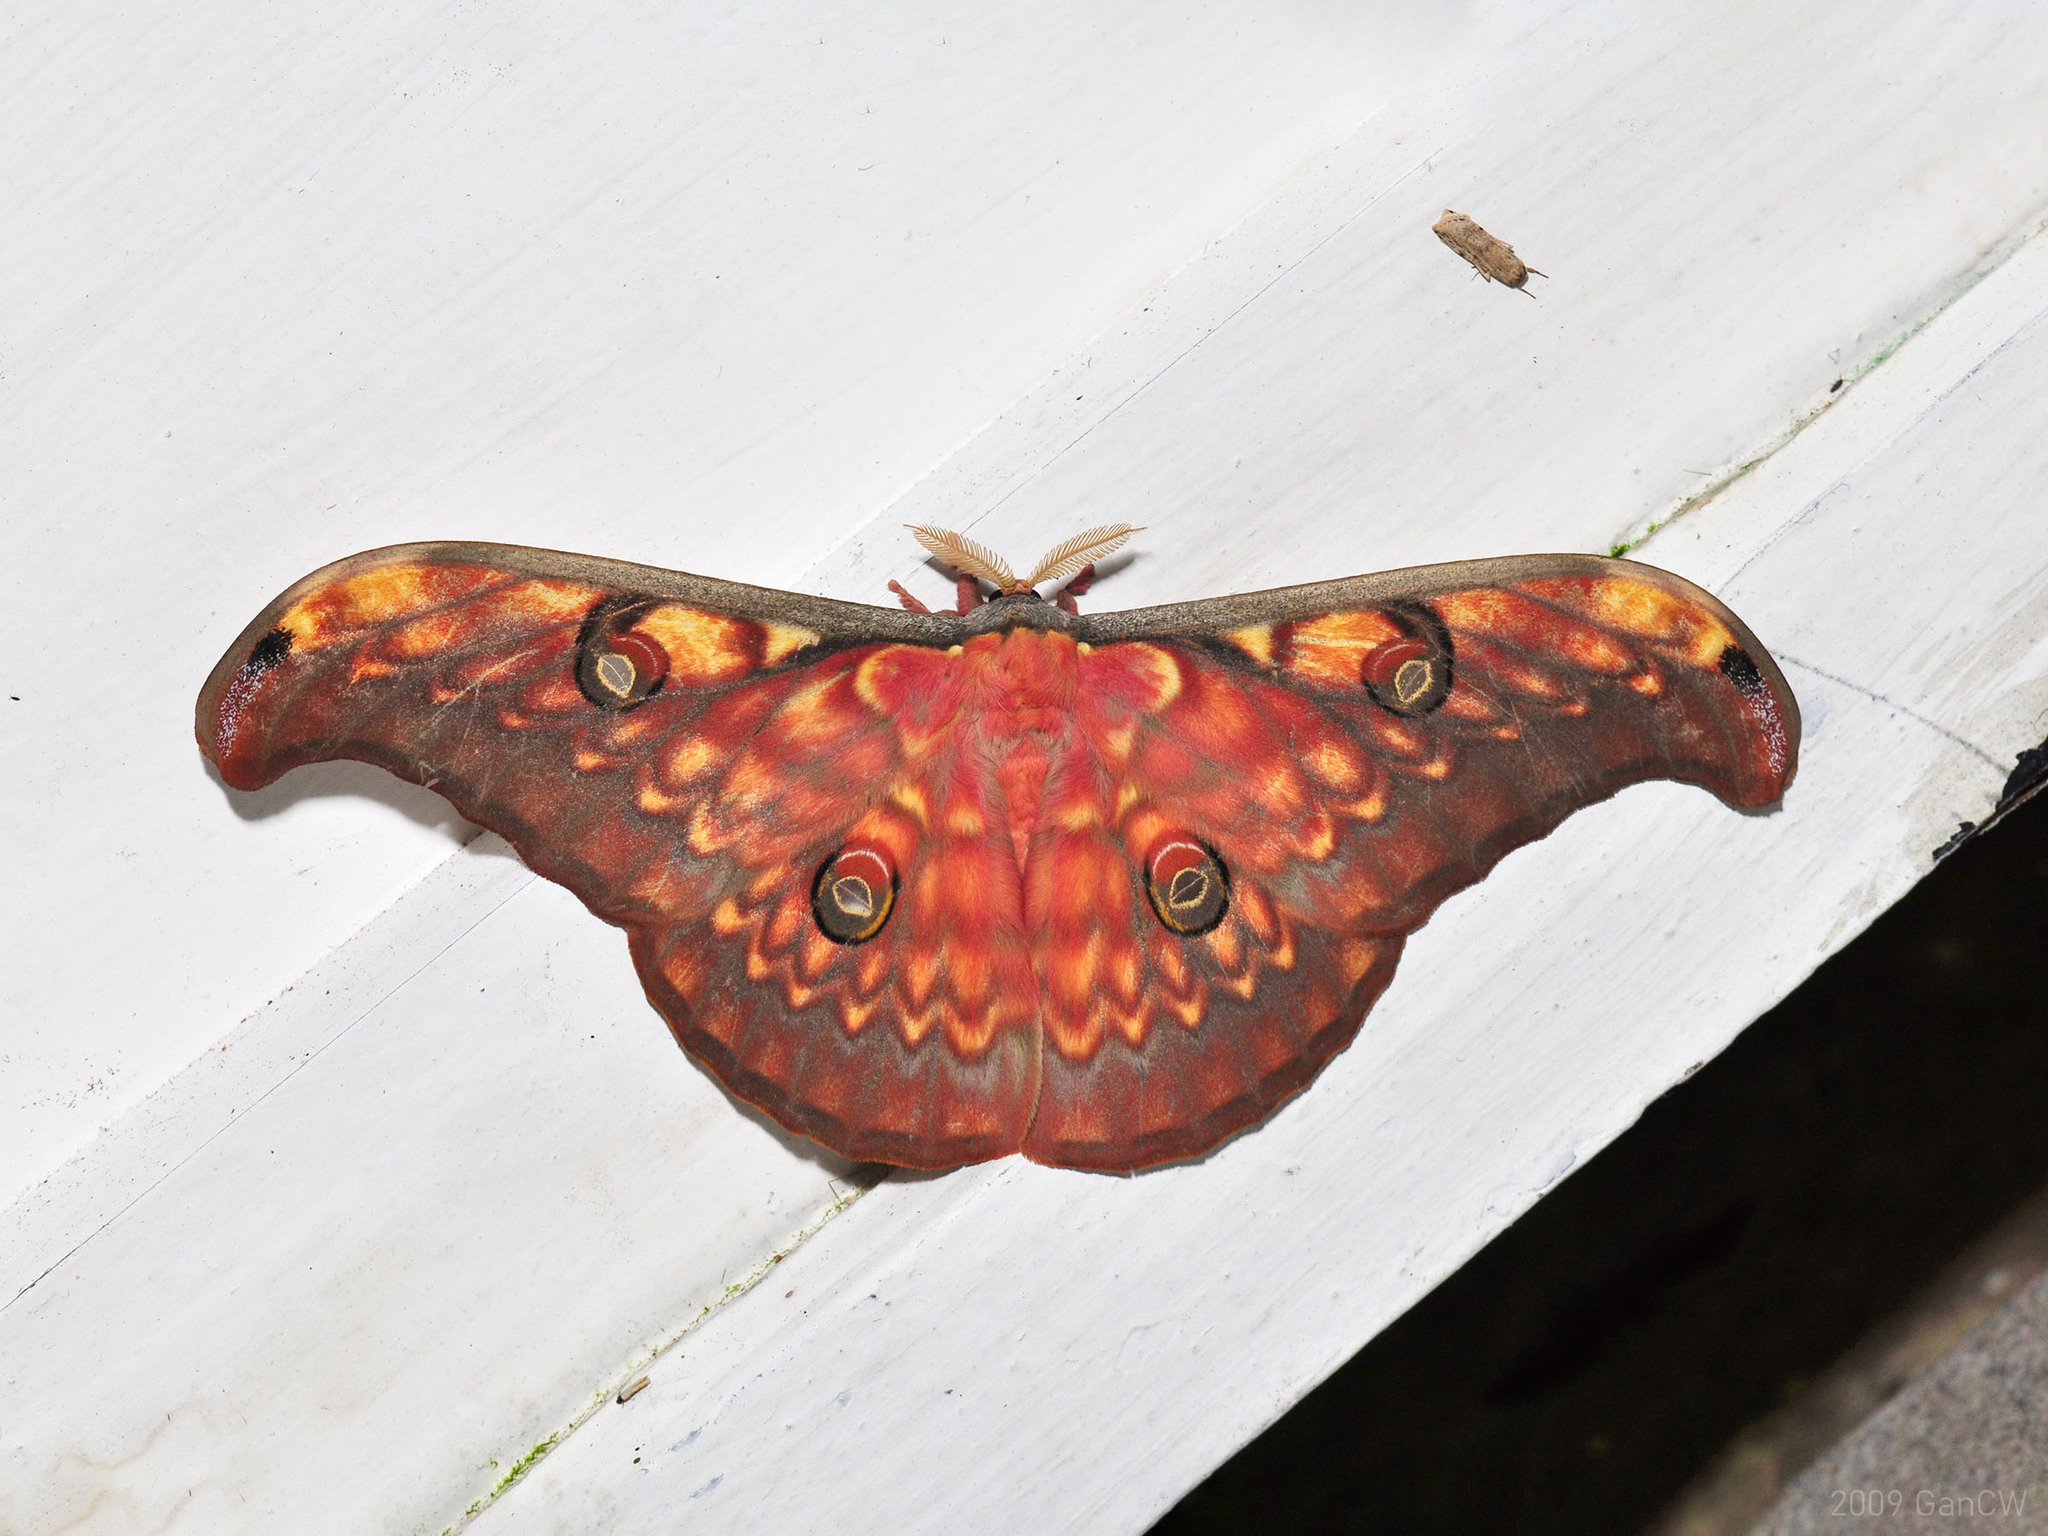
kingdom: Animalia
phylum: Arthropoda
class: Insecta
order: Lepidoptera
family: Saturniidae
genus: Antheraea
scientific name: Antheraea larissa
